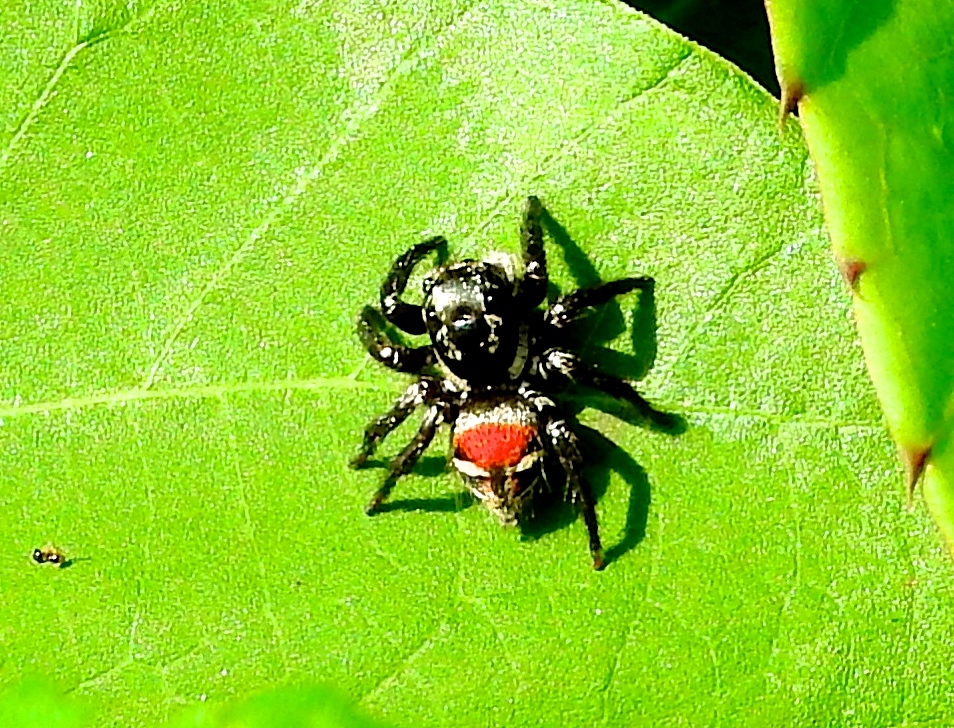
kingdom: Animalia
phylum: Arthropoda
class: Arachnida
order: Araneae
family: Salticidae
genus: Corythalia
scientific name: Corythalia
